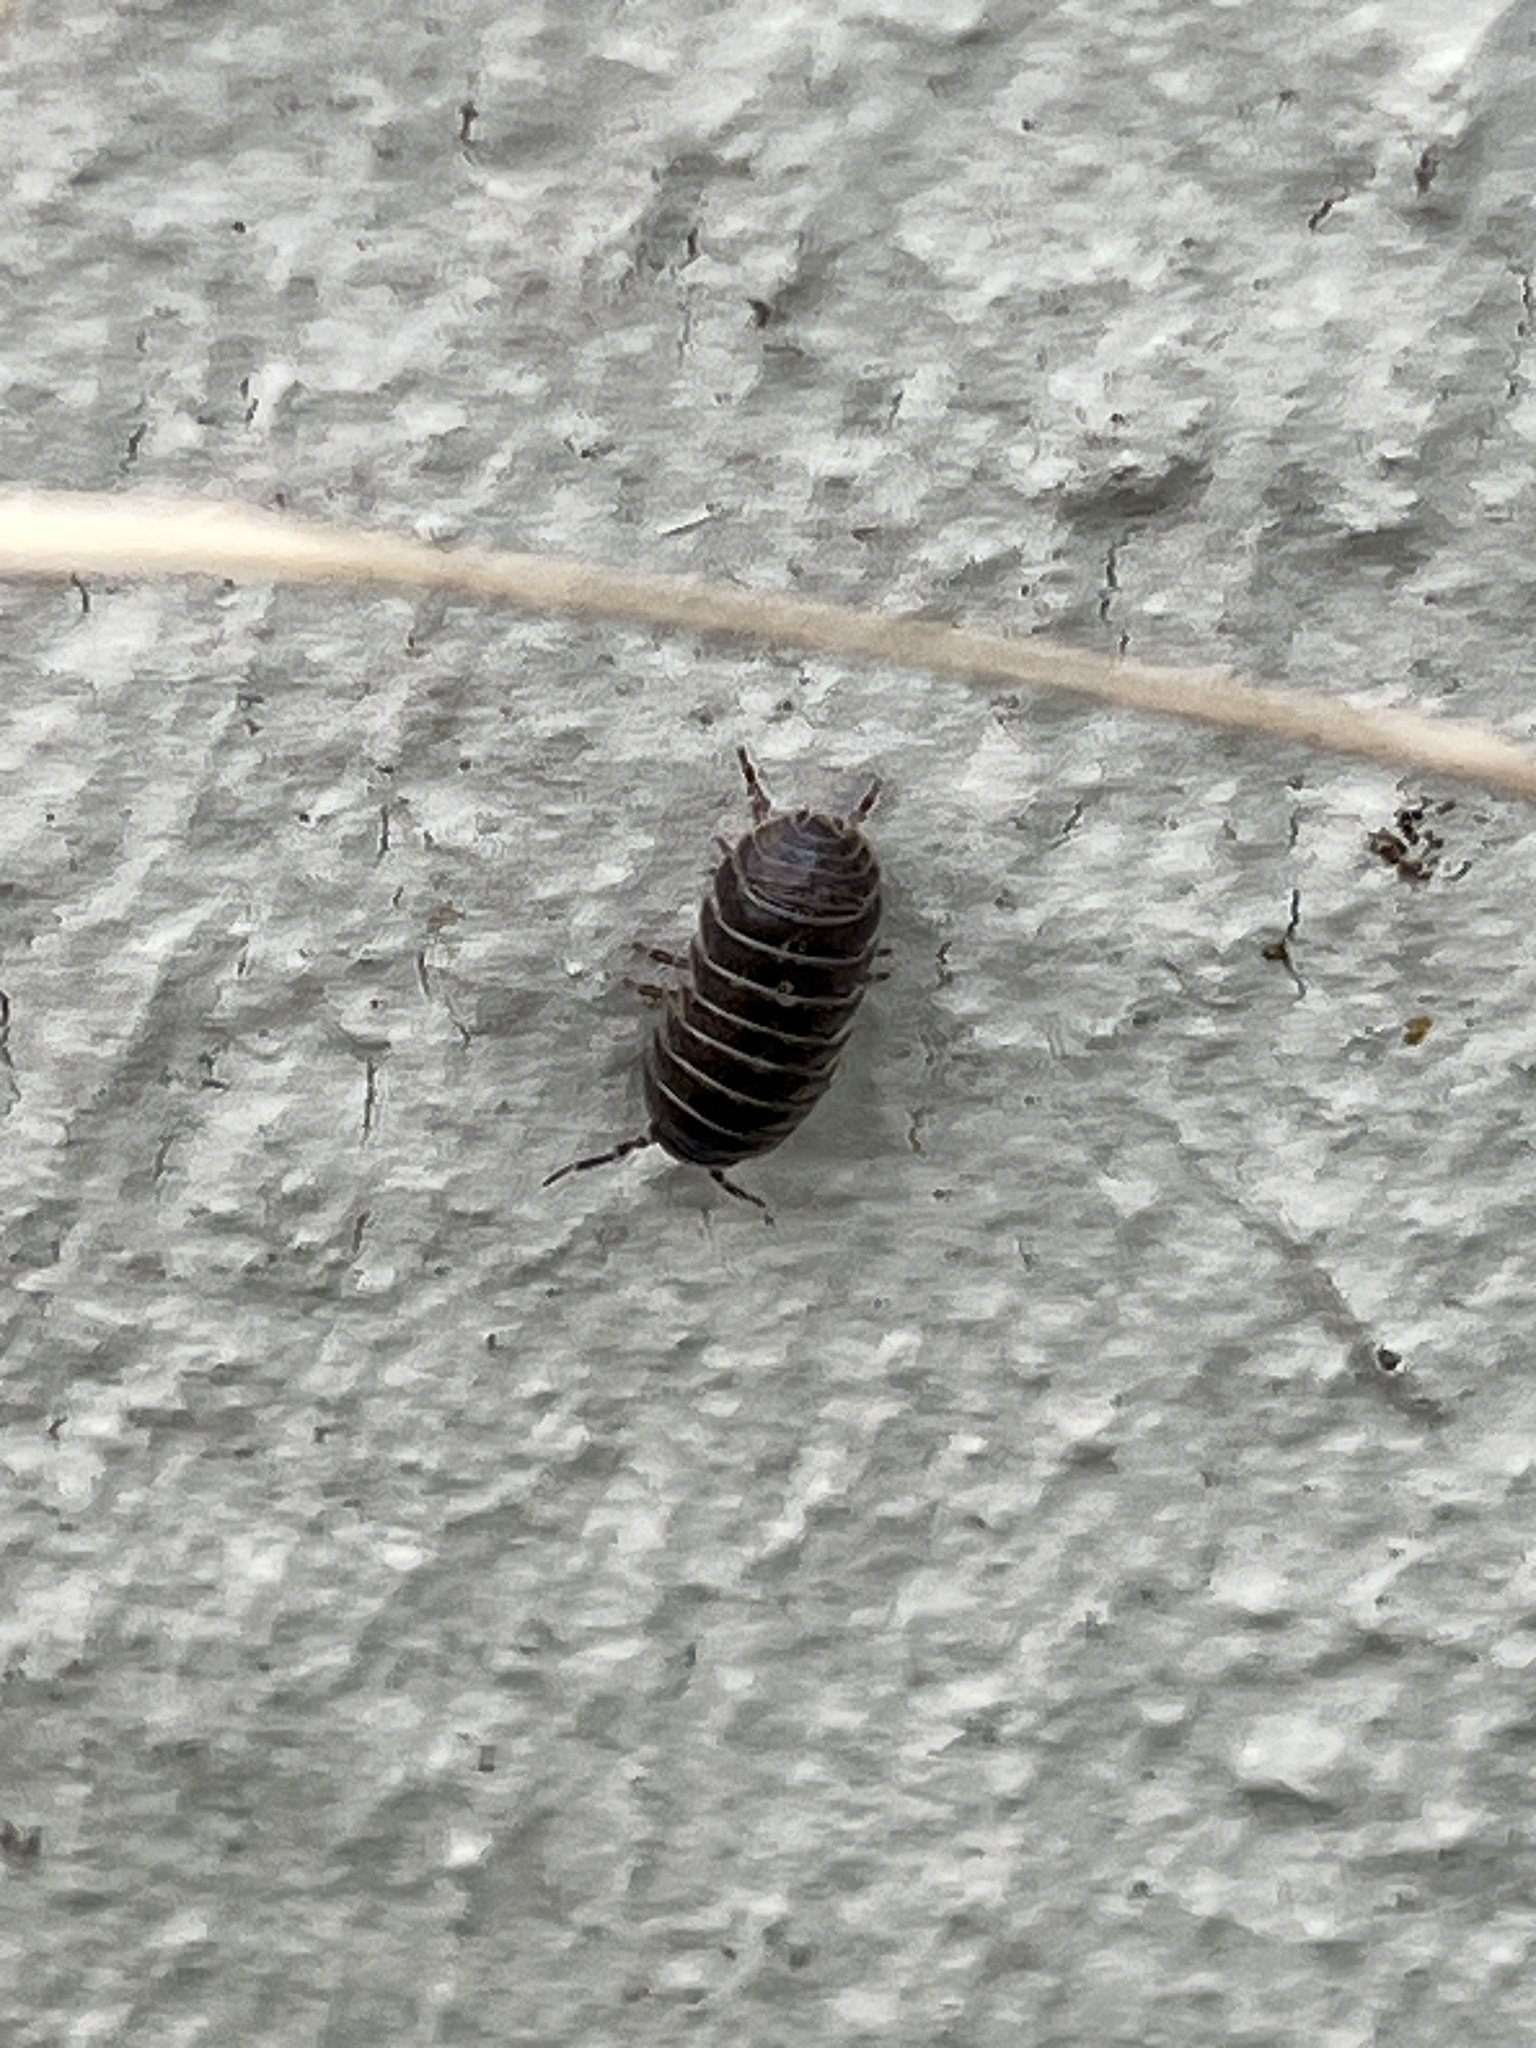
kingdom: Animalia
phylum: Arthropoda
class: Malacostraca
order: Isopoda
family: Armadillidiidae
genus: Armadillidium
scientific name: Armadillidium vulgare
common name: Common pill woodlouse
